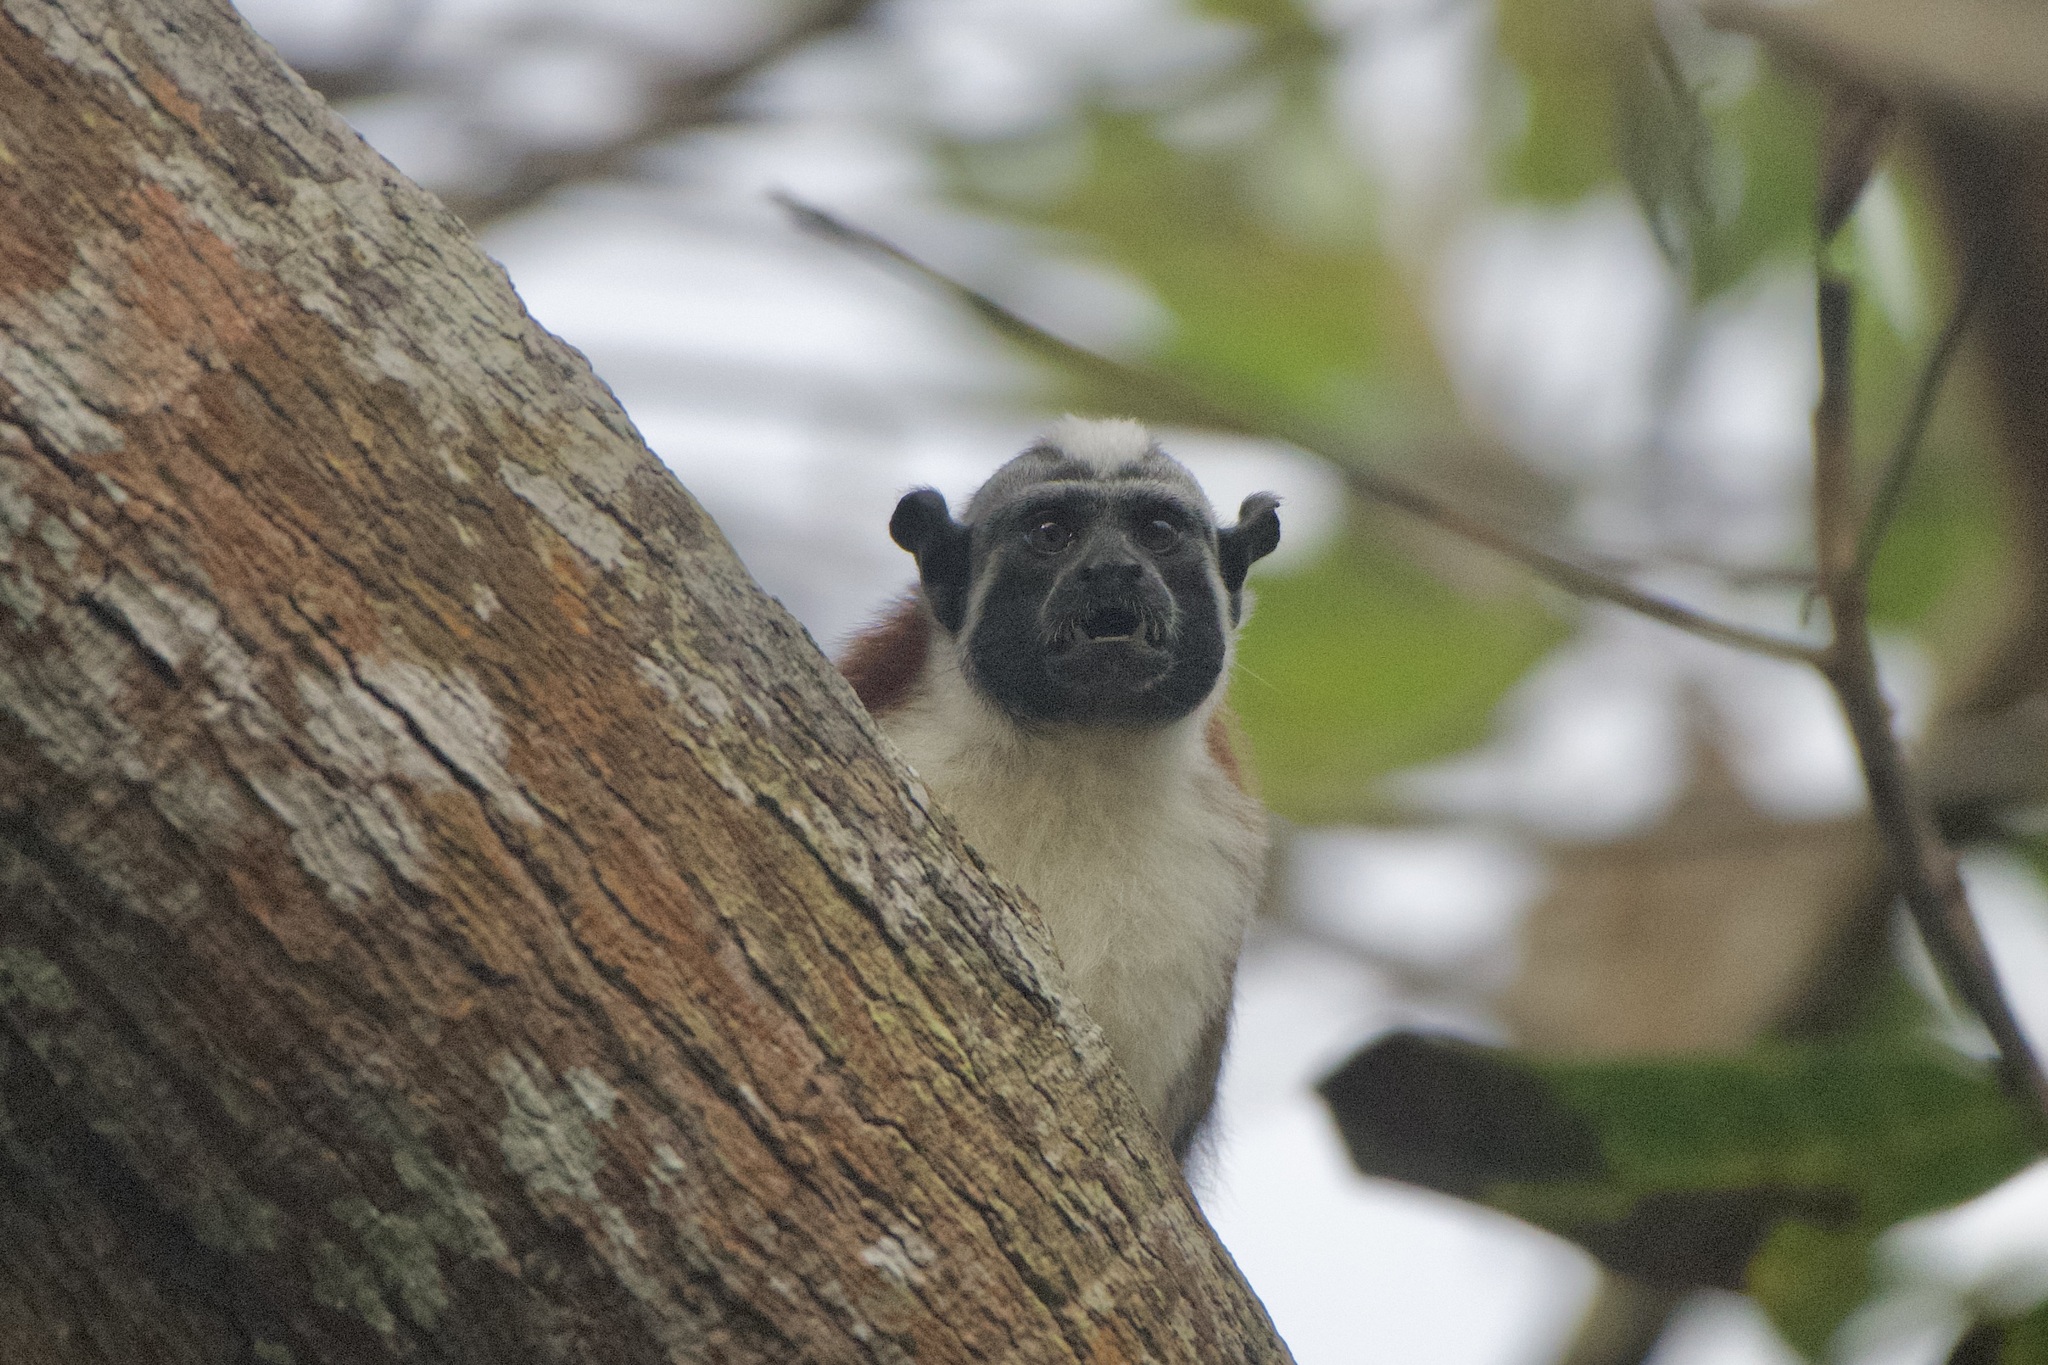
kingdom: Animalia
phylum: Chordata
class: Mammalia
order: Primates
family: Callitrichidae
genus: Saguinus
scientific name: Saguinus geoffroyi
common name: Geoffroy s tamarin
